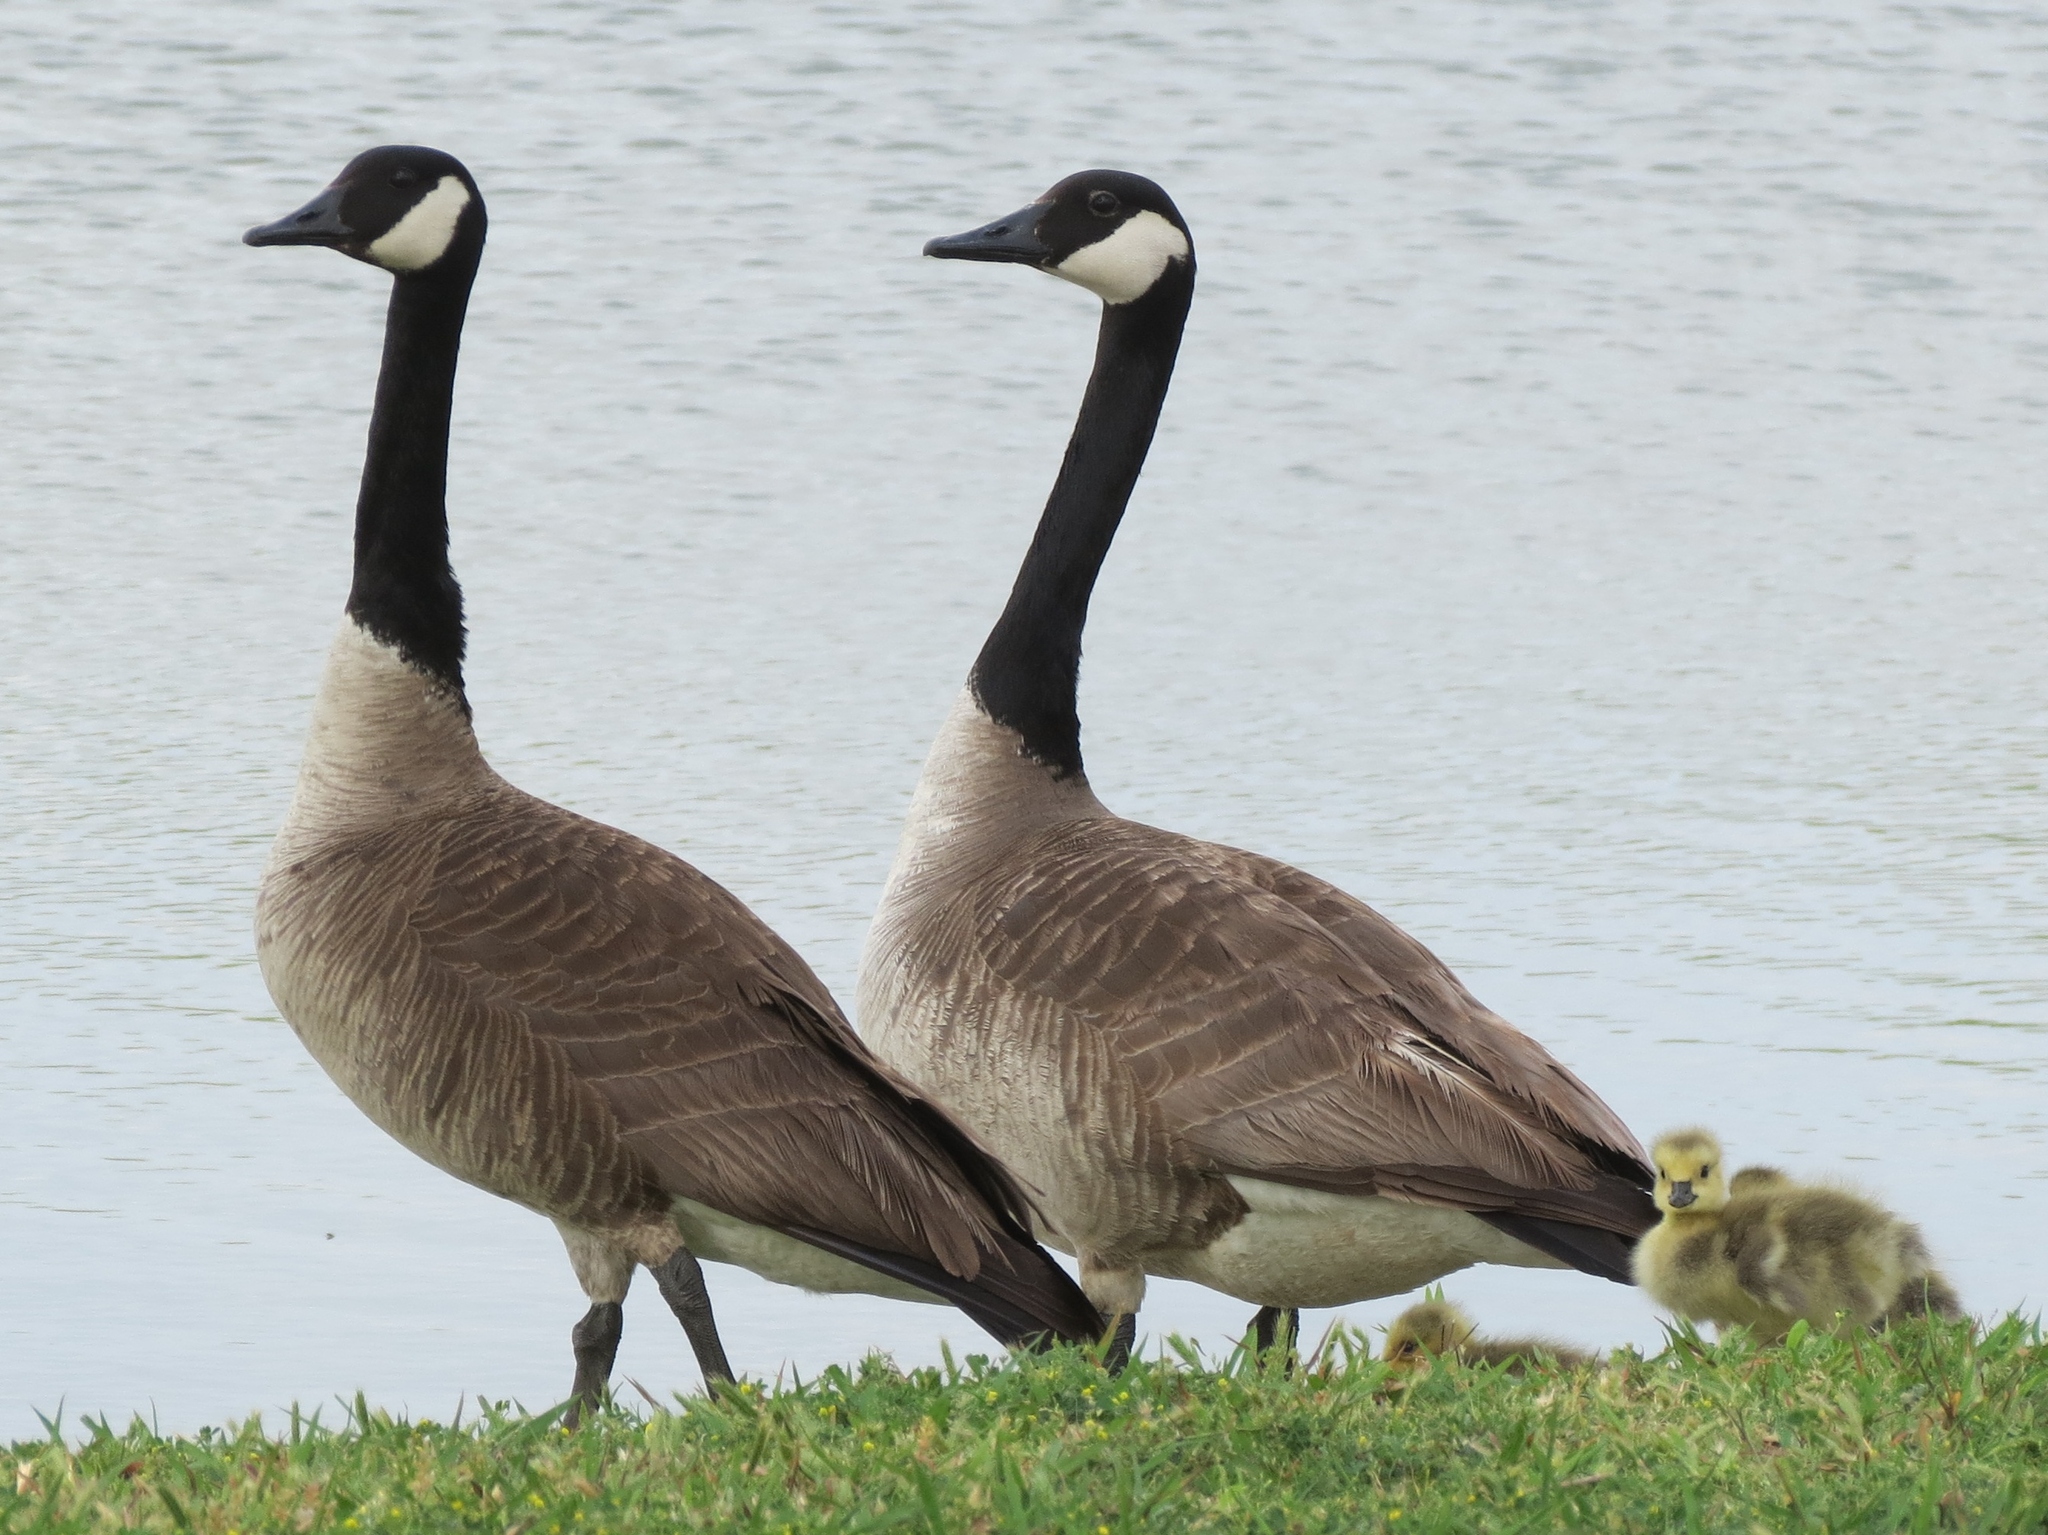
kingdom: Animalia
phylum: Chordata
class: Aves
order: Anseriformes
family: Anatidae
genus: Branta
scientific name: Branta canadensis
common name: Canada goose
